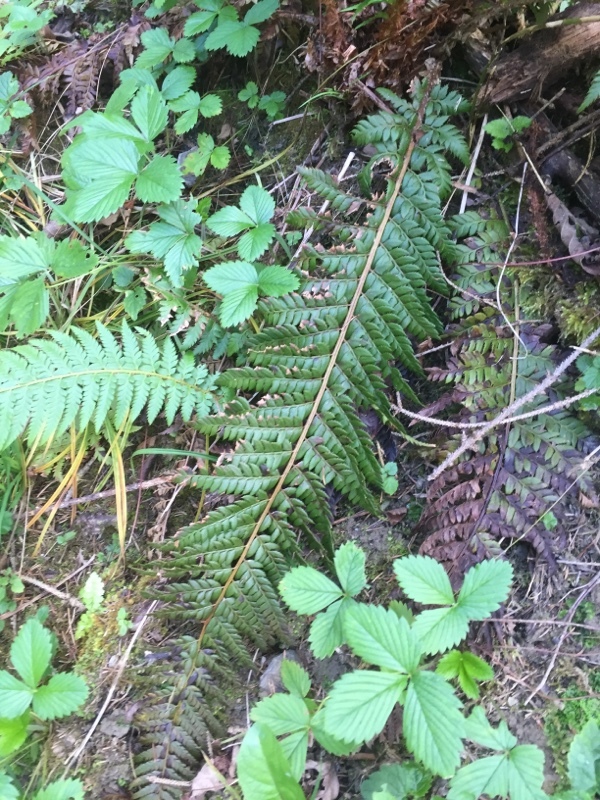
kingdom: Plantae
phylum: Tracheophyta
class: Polypodiopsida
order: Polypodiales
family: Dryopteridaceae
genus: Polystichum
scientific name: Polystichum aculeatum
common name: Hard shield-fern
